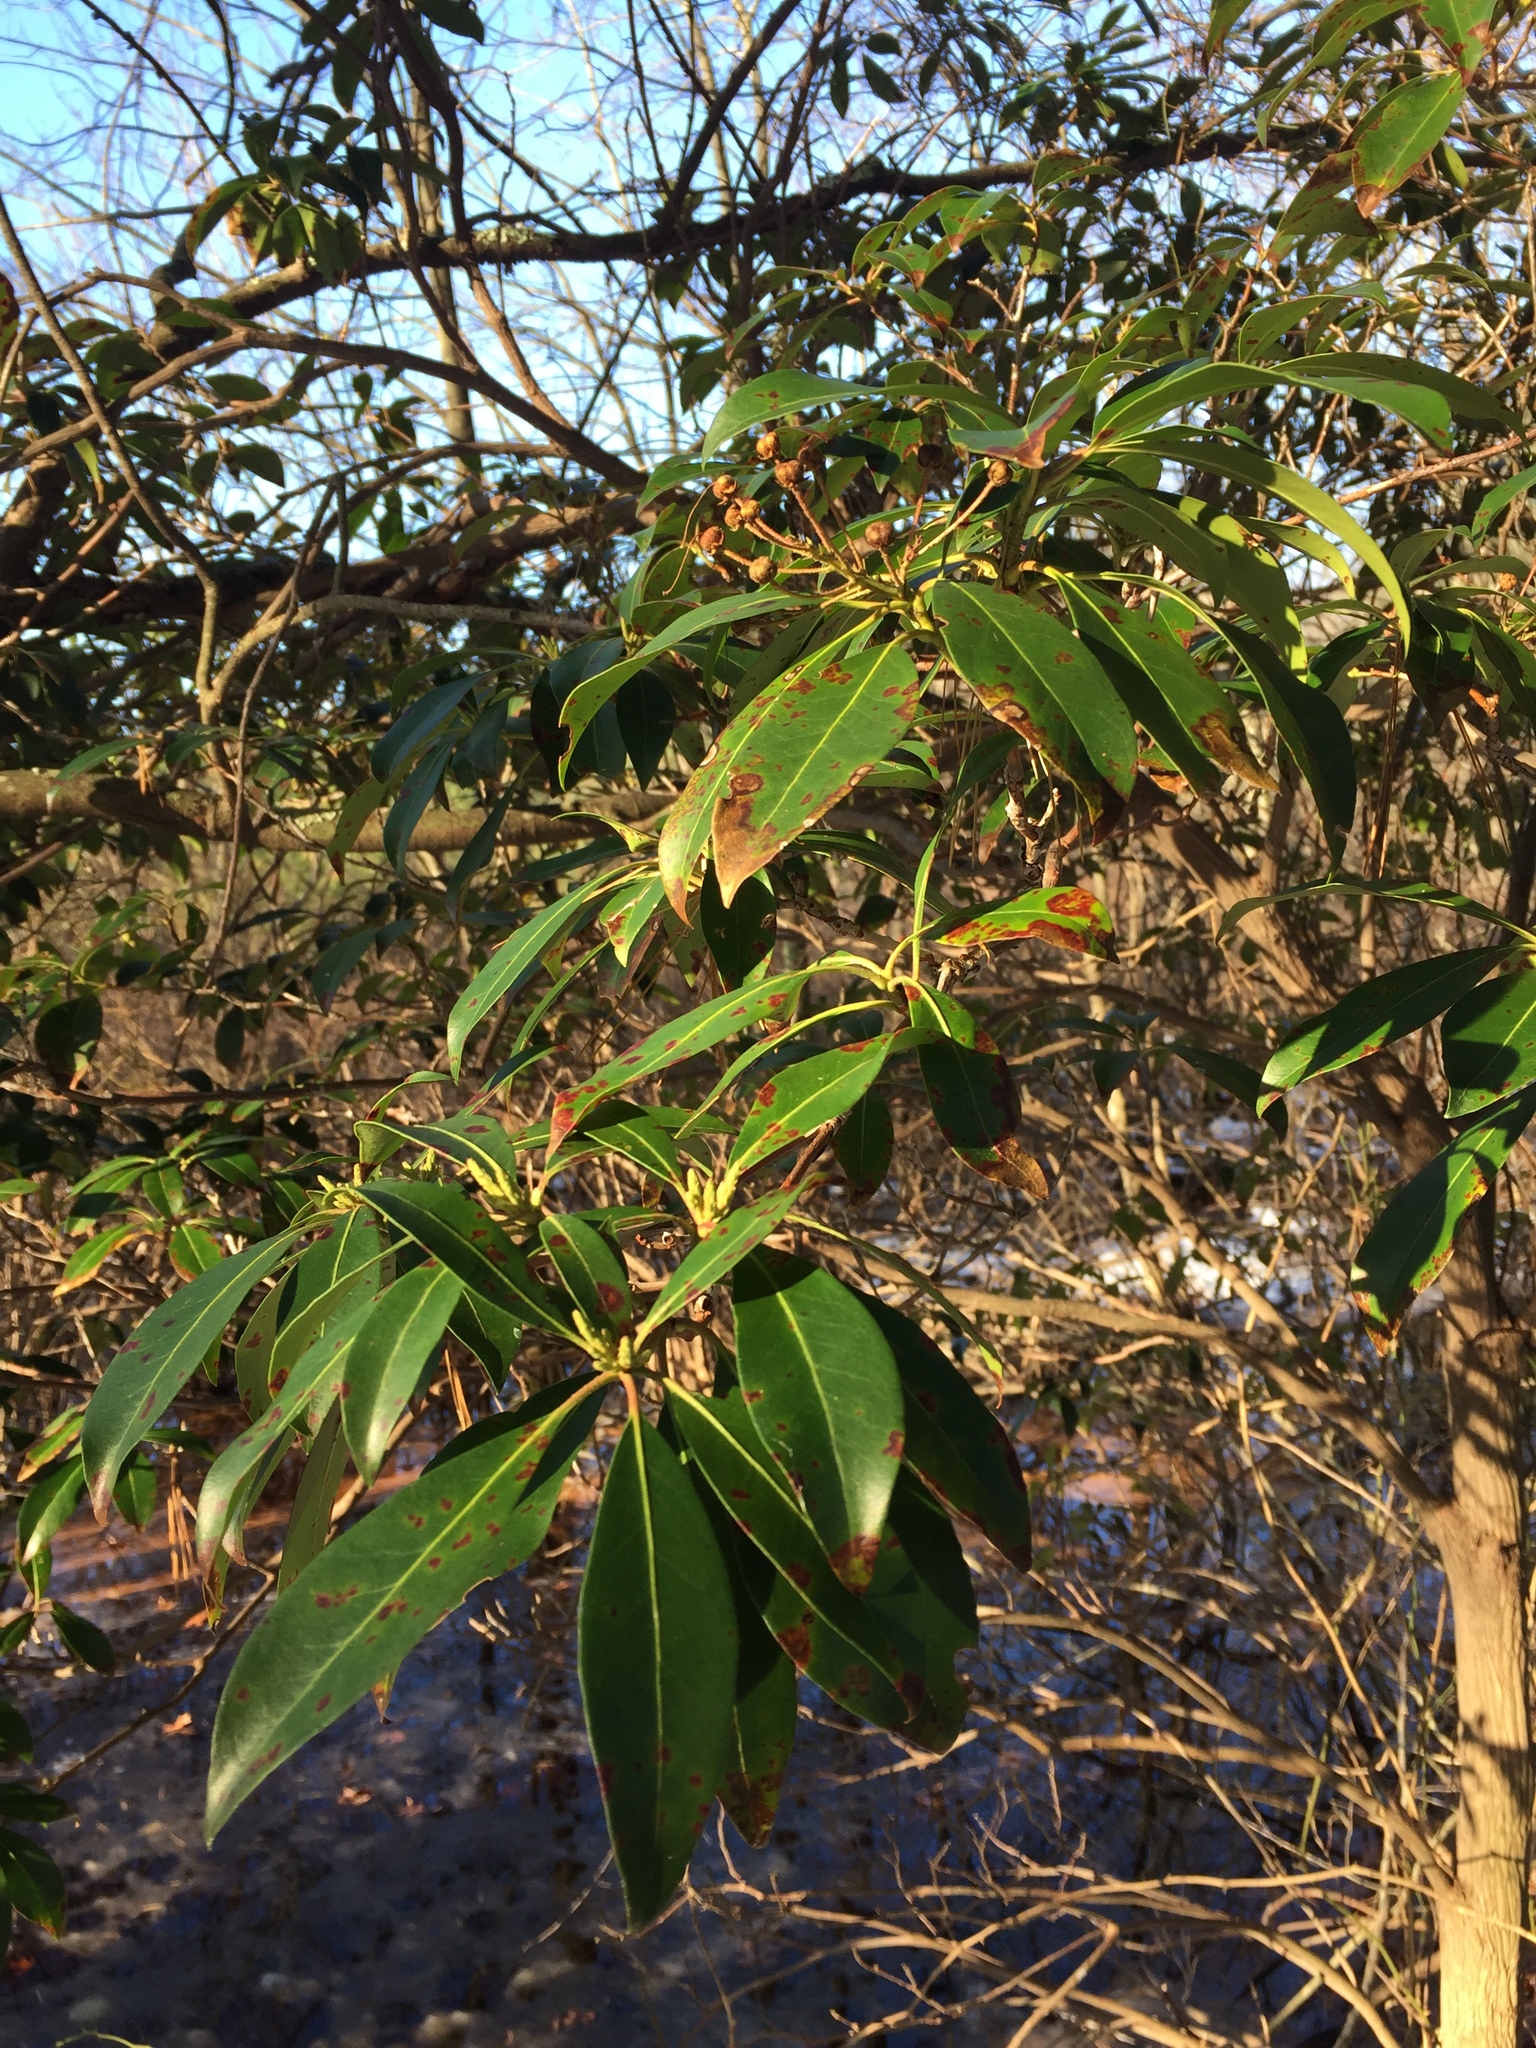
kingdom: Plantae
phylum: Tracheophyta
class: Magnoliopsida
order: Ericales
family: Ericaceae
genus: Kalmia
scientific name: Kalmia latifolia
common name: Mountain-laurel
